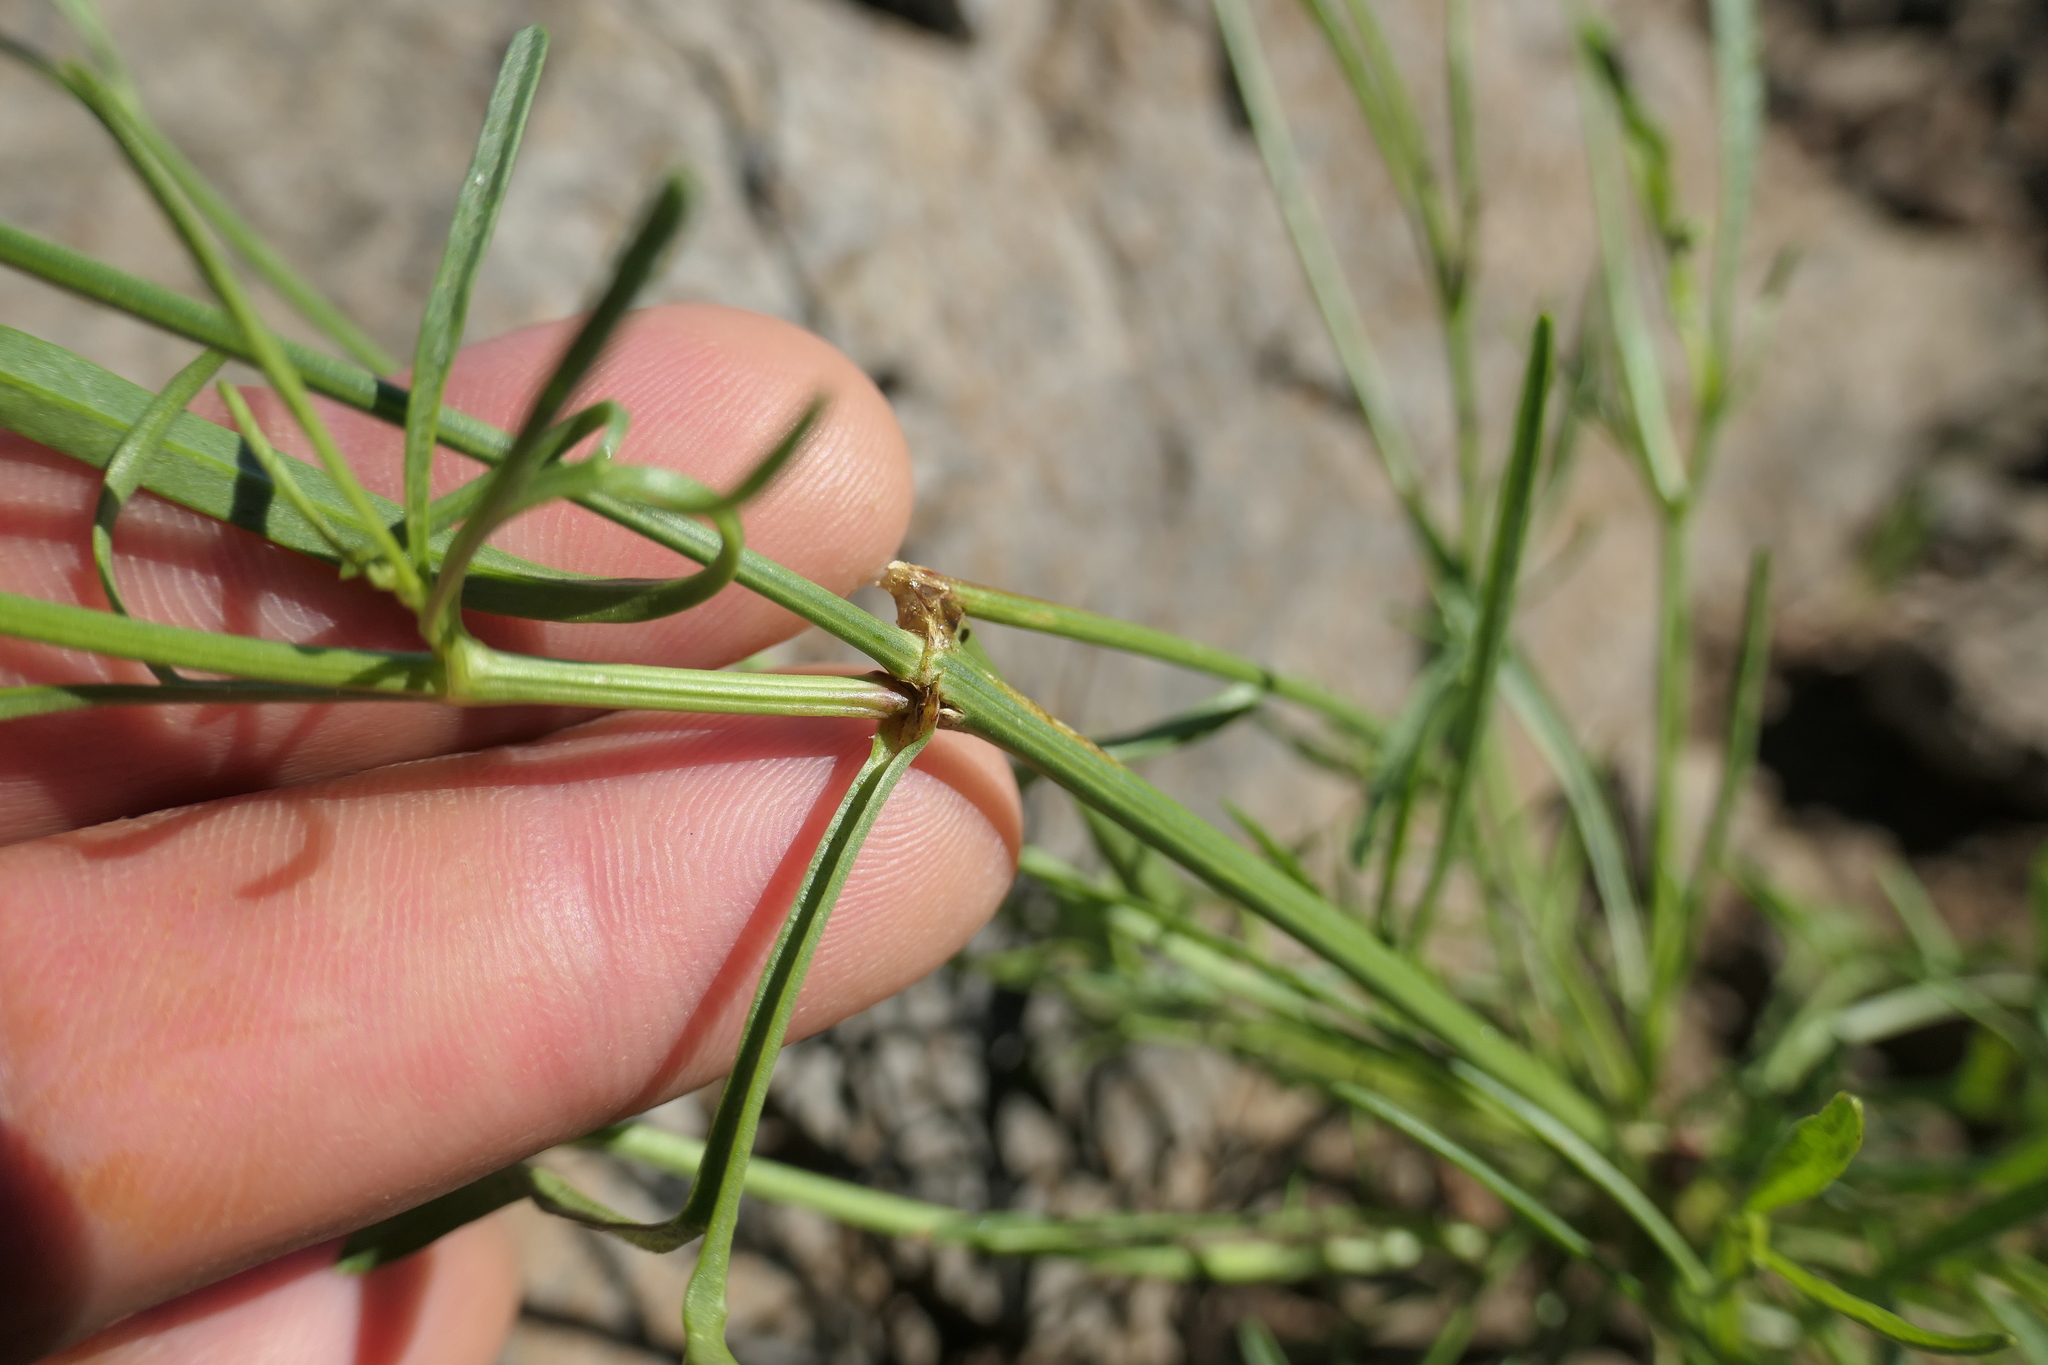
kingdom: Plantae
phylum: Tracheophyta
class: Magnoliopsida
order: Asterales
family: Asteraceae
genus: Coreopsis
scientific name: Coreopsis tinctoria
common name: Garden tickseed
